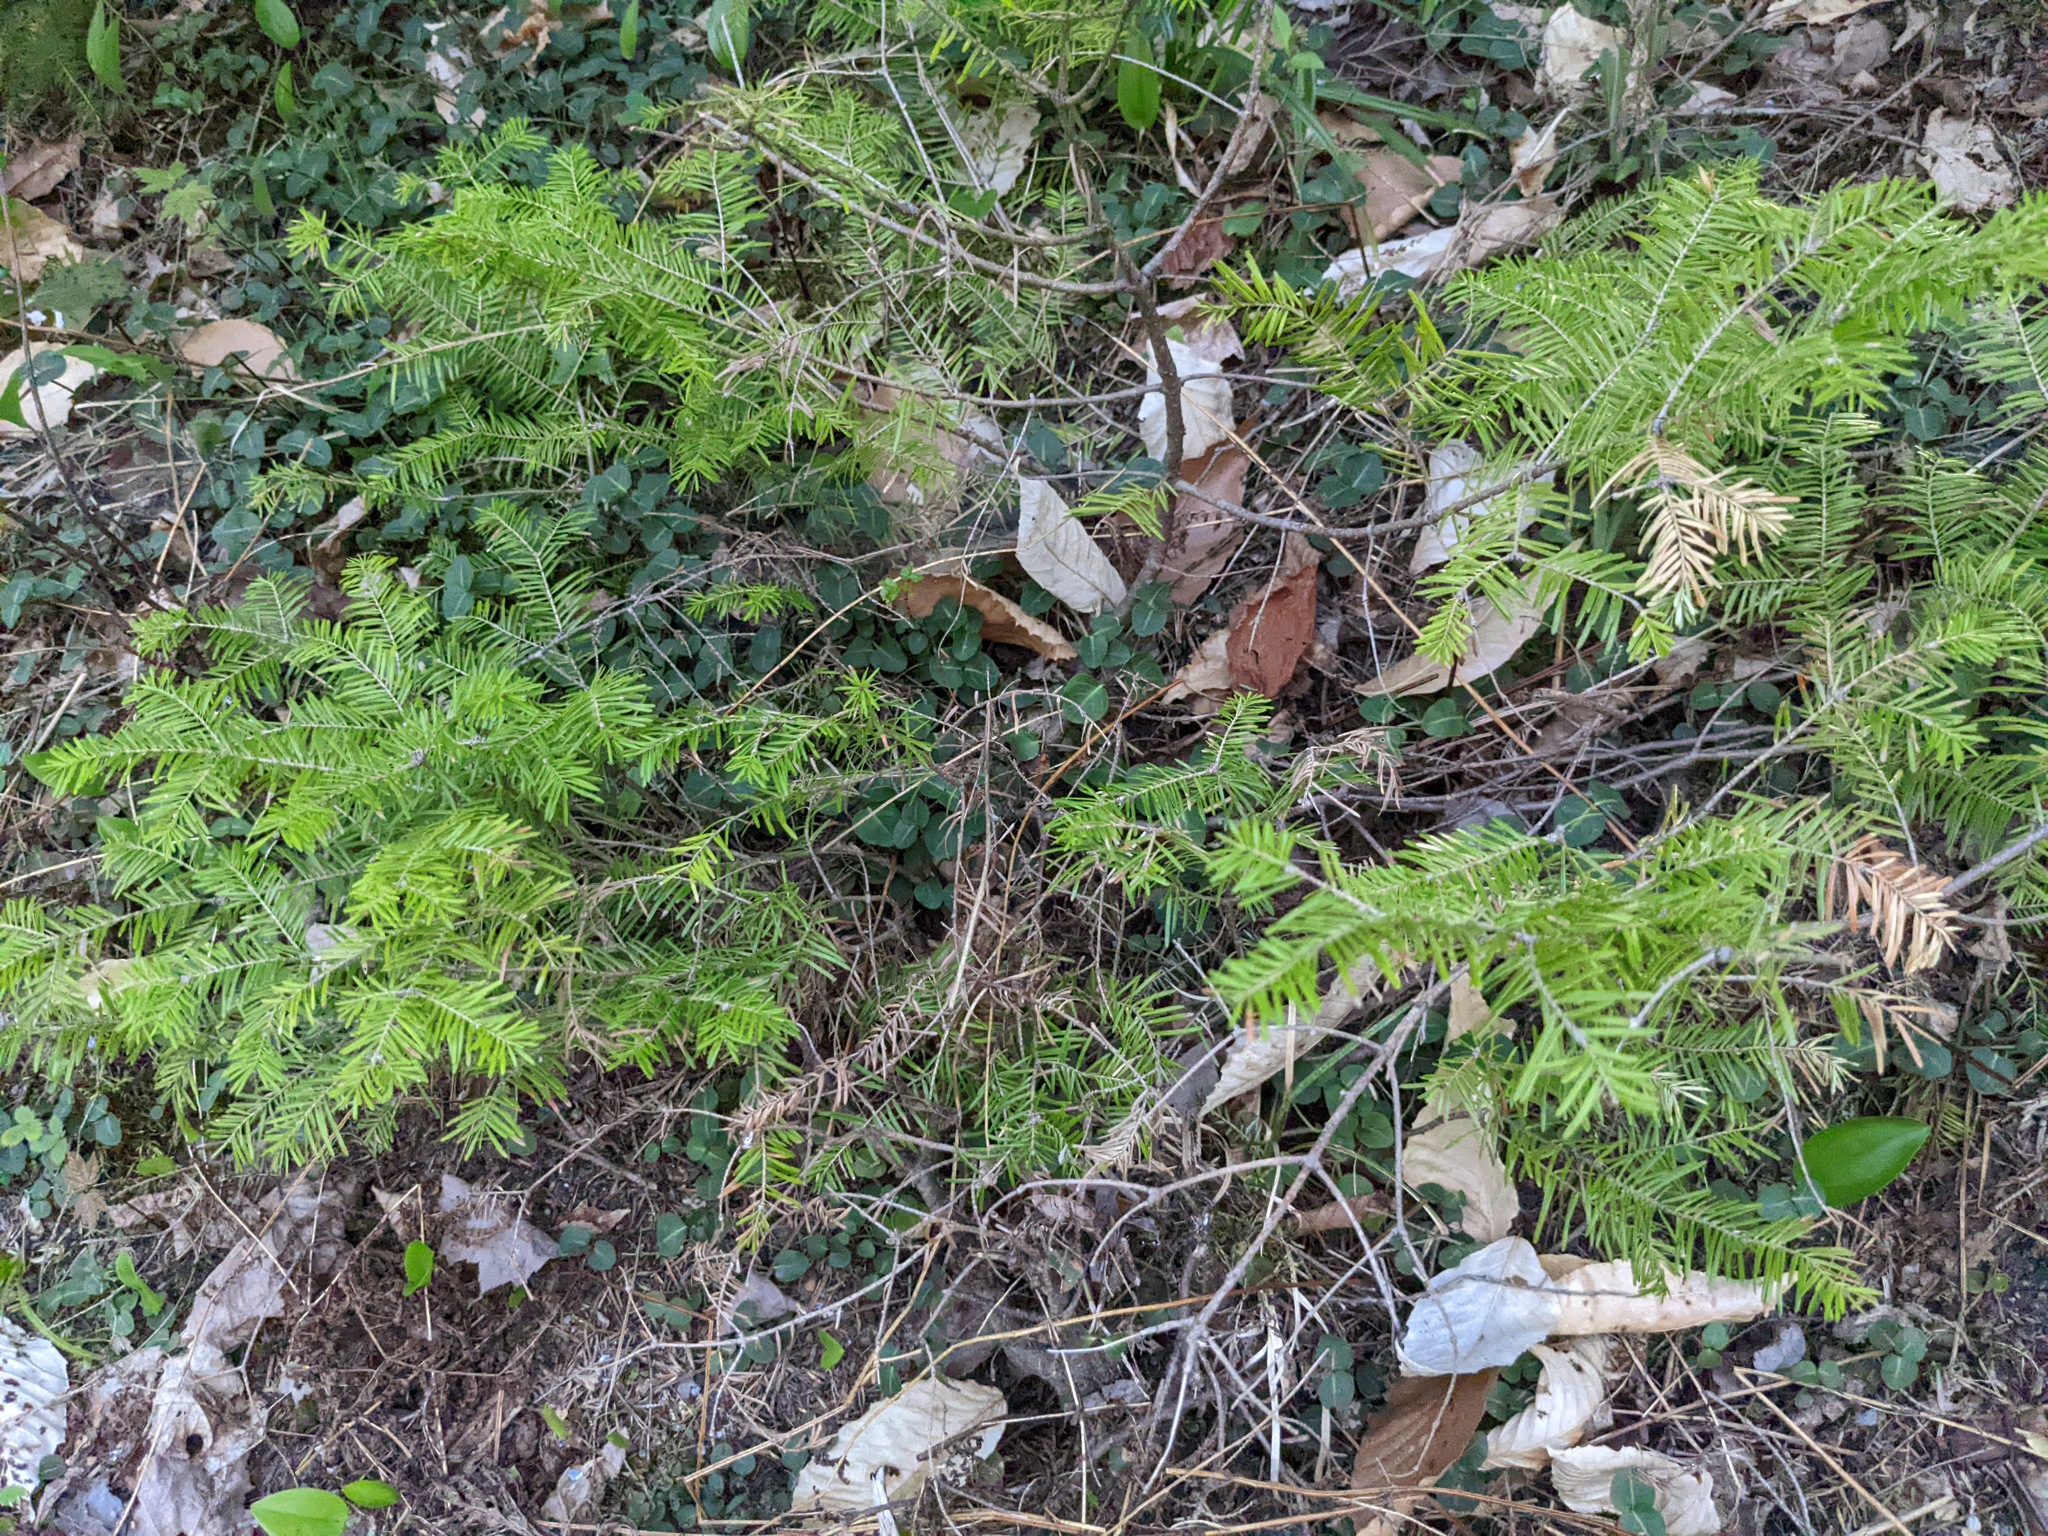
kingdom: Plantae
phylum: Tracheophyta
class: Pinopsida
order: Pinales
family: Pinaceae
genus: Abies
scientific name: Abies balsamea
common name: Balsam fir
